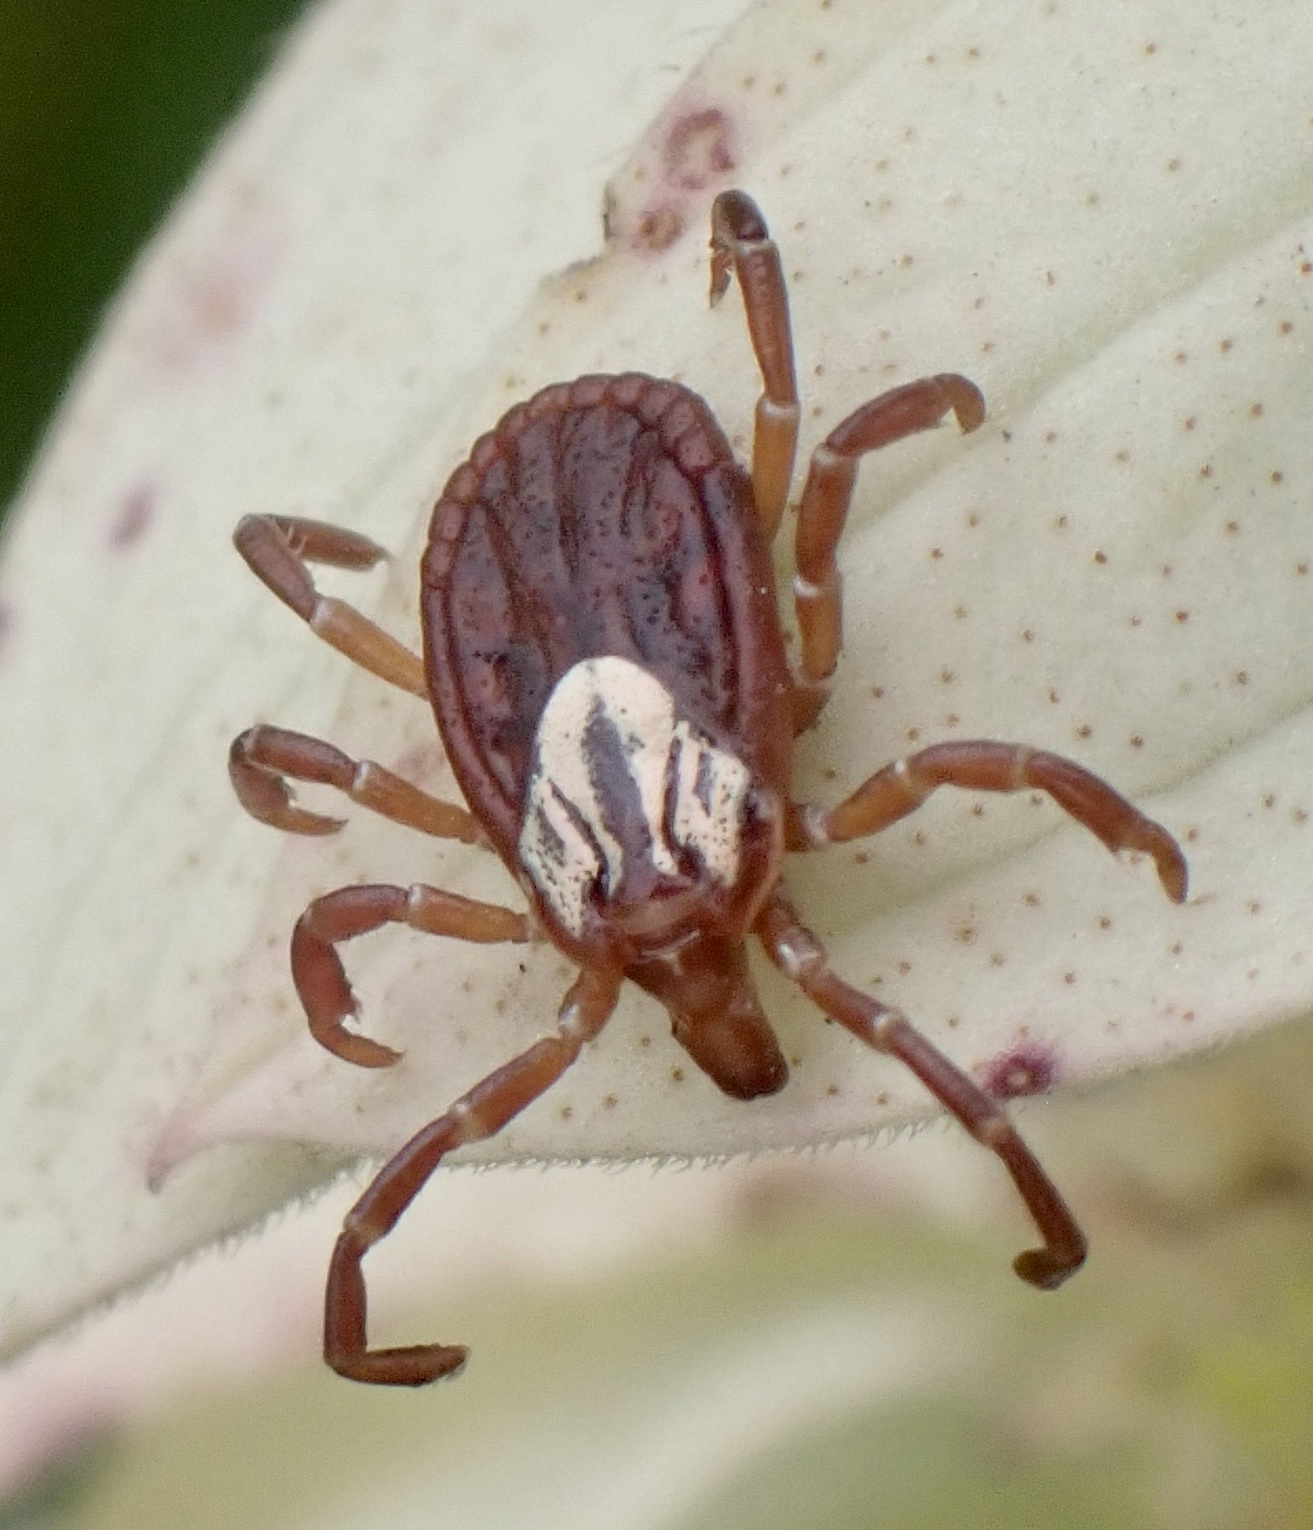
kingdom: Animalia
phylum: Arthropoda
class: Arachnida
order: Ixodida
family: Ixodidae
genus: Amblyomma
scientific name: Amblyomma maculatum
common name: Gulf coast tick
